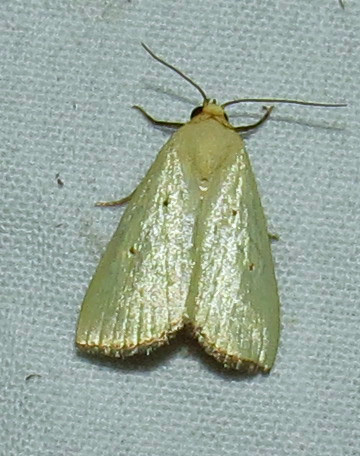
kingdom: Animalia
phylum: Arthropoda
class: Insecta
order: Lepidoptera
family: Noctuidae
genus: Marimatha
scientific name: Marimatha nigrofimbria
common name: Black-bordered lemon moth
